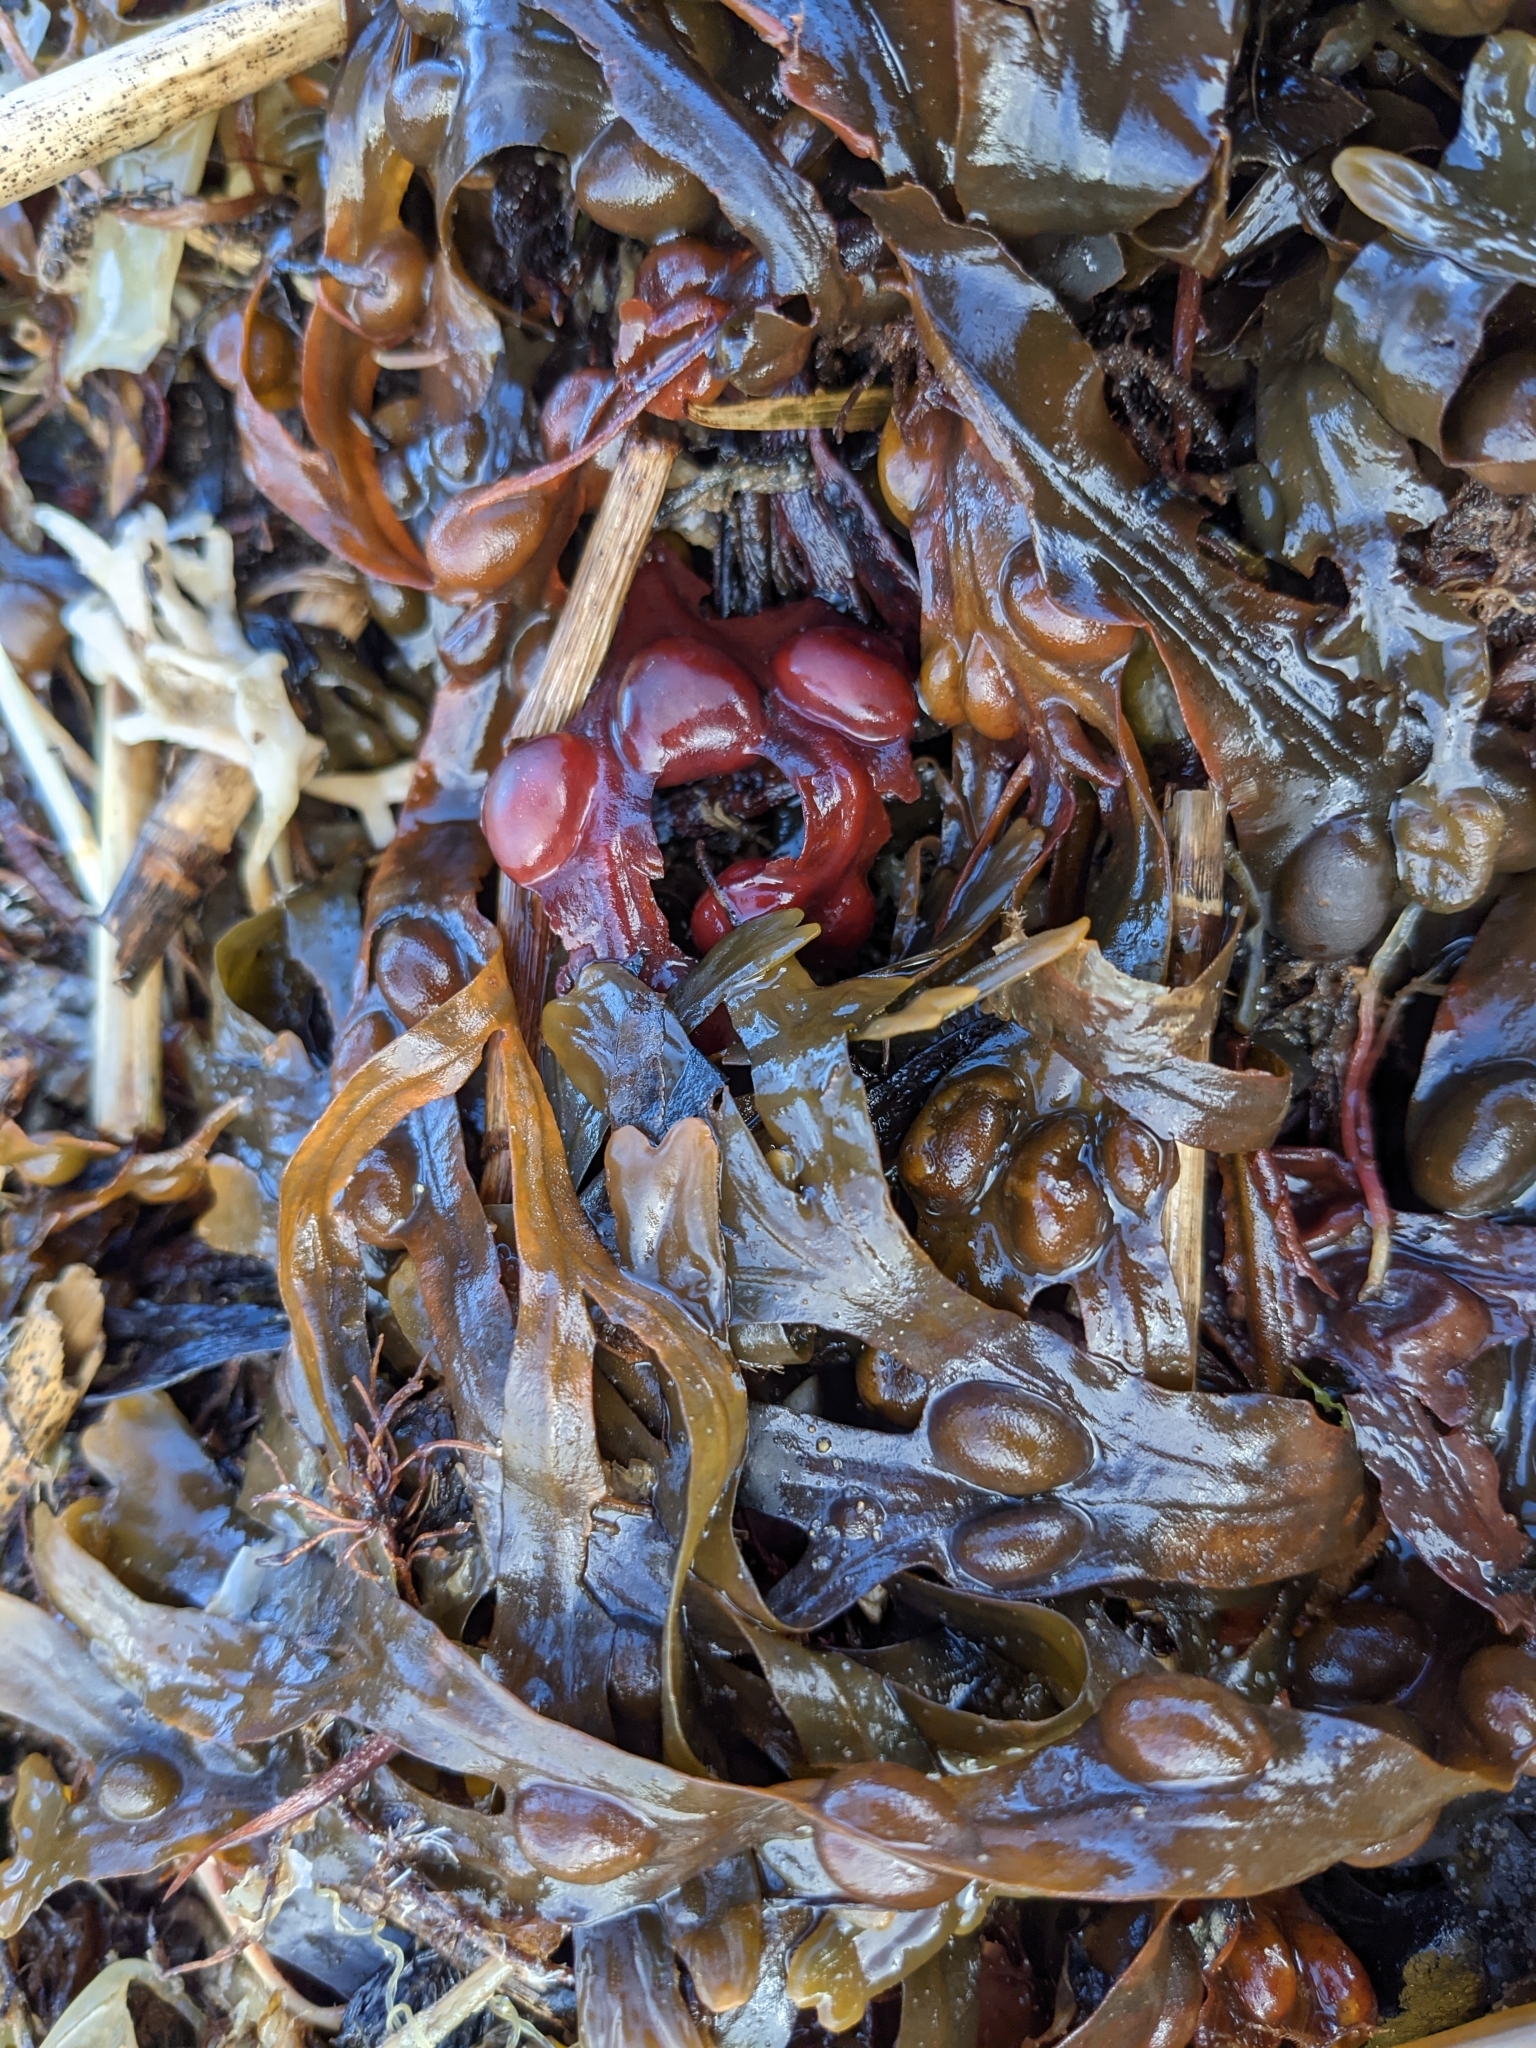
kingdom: Chromista
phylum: Ochrophyta
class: Phaeophyceae
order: Fucales
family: Fucaceae
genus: Fucus
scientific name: Fucus vesiculosus
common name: Bladder wrack
